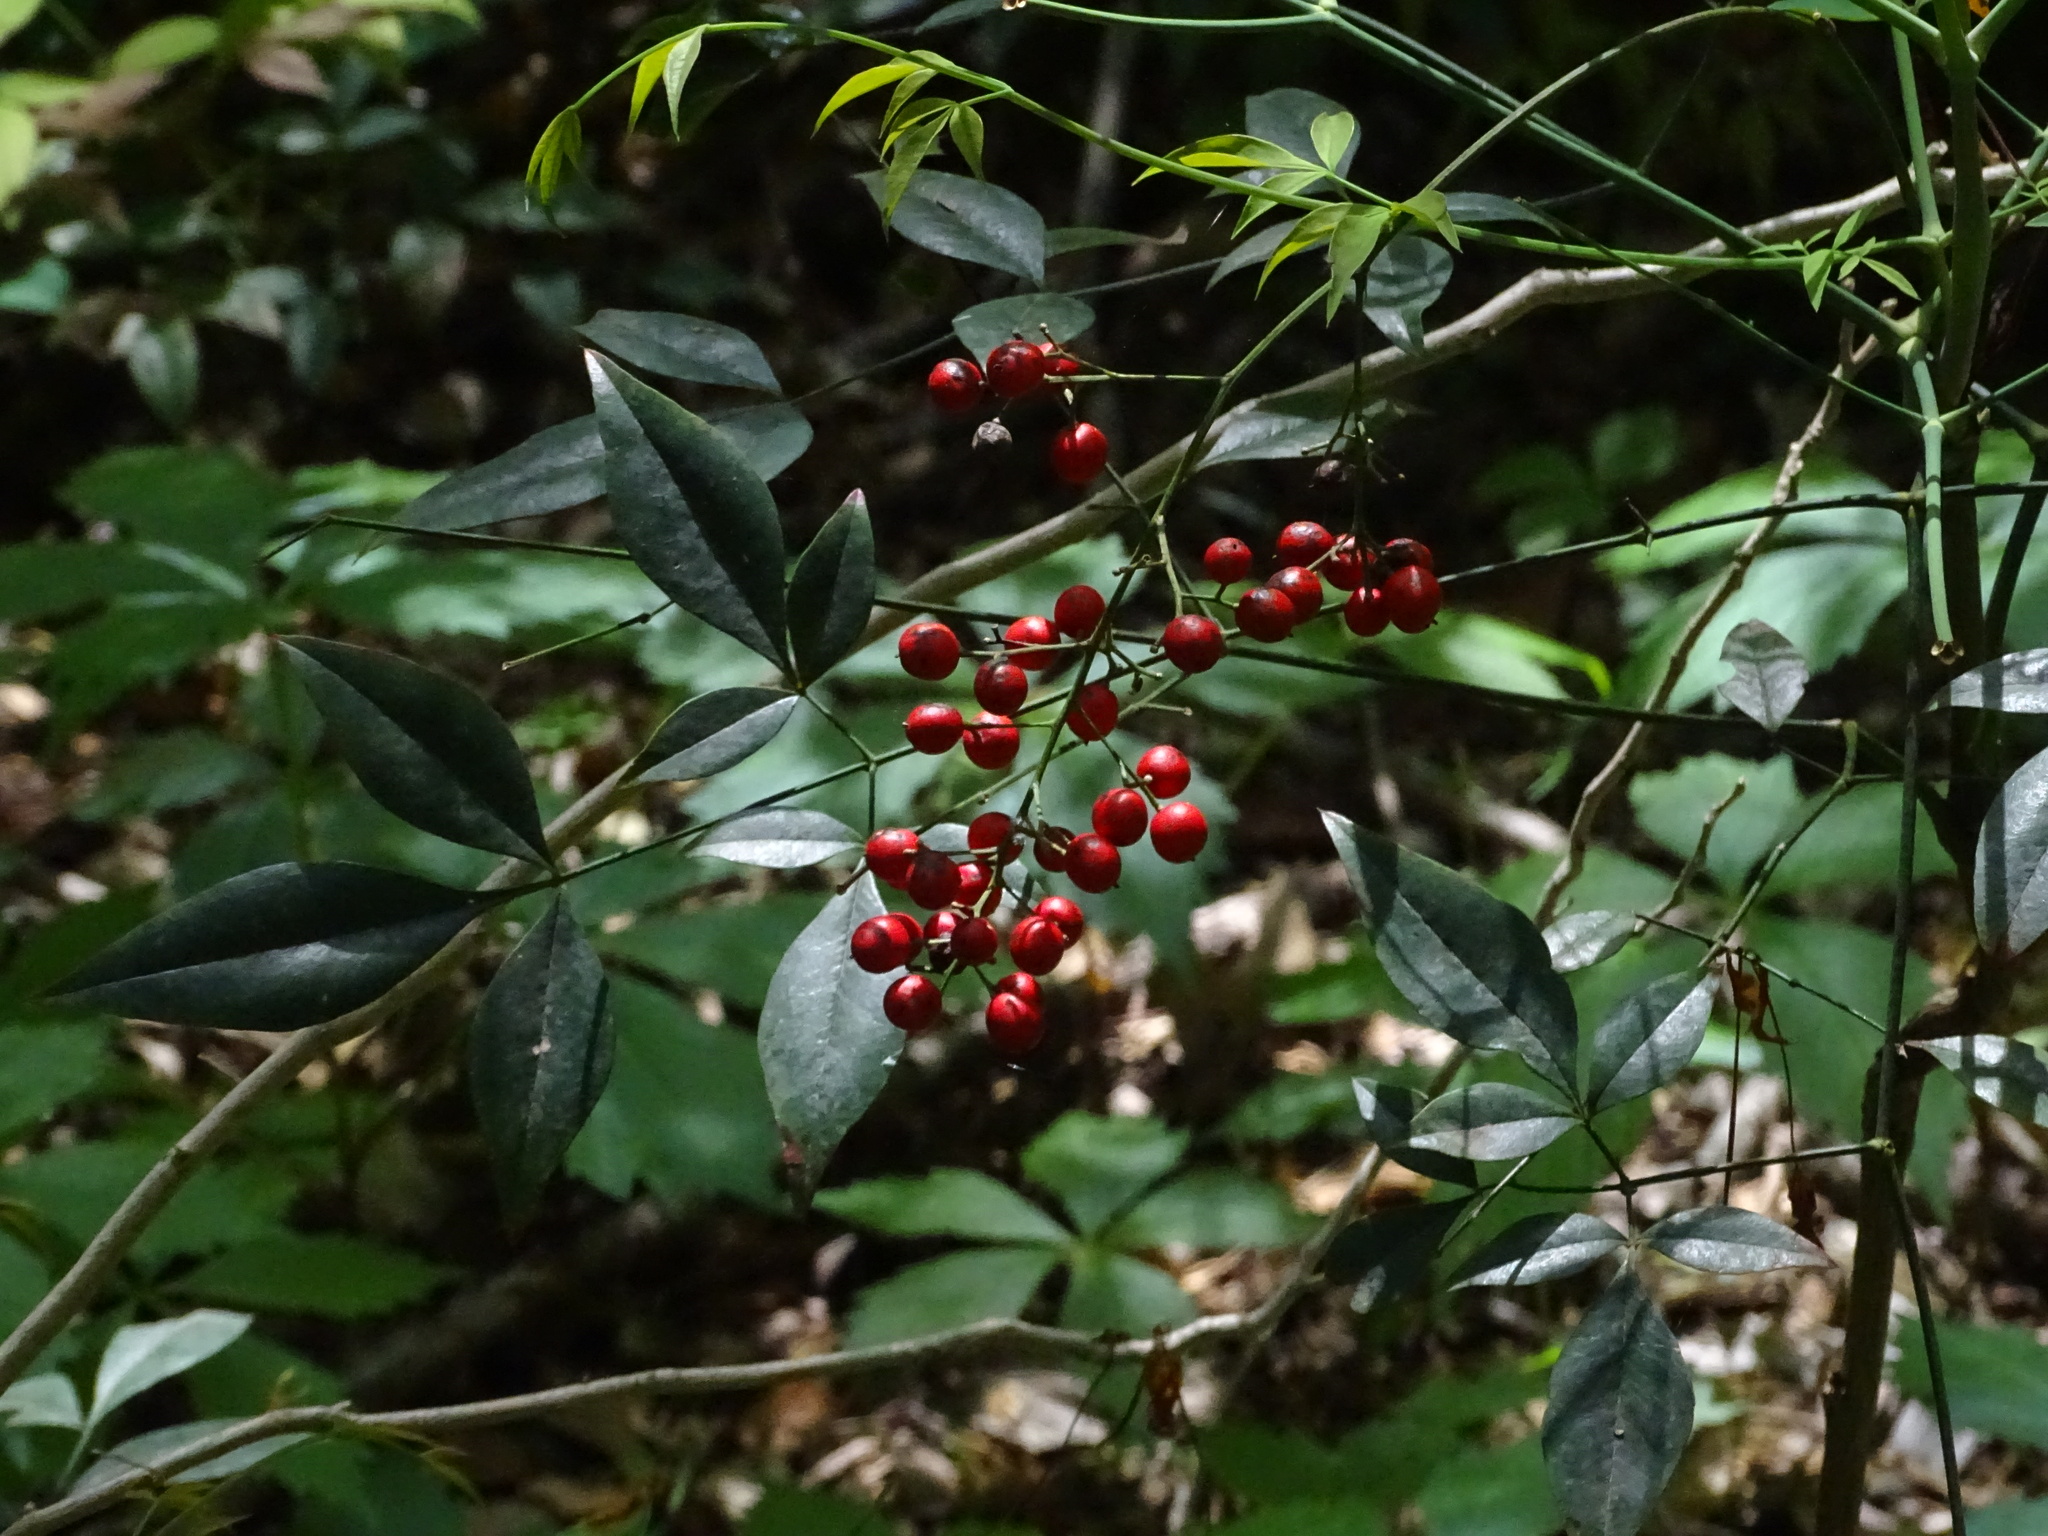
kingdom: Plantae
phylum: Tracheophyta
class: Magnoliopsida
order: Ranunculales
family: Berberidaceae
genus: Nandina
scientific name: Nandina domestica
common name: Sacred bamboo
